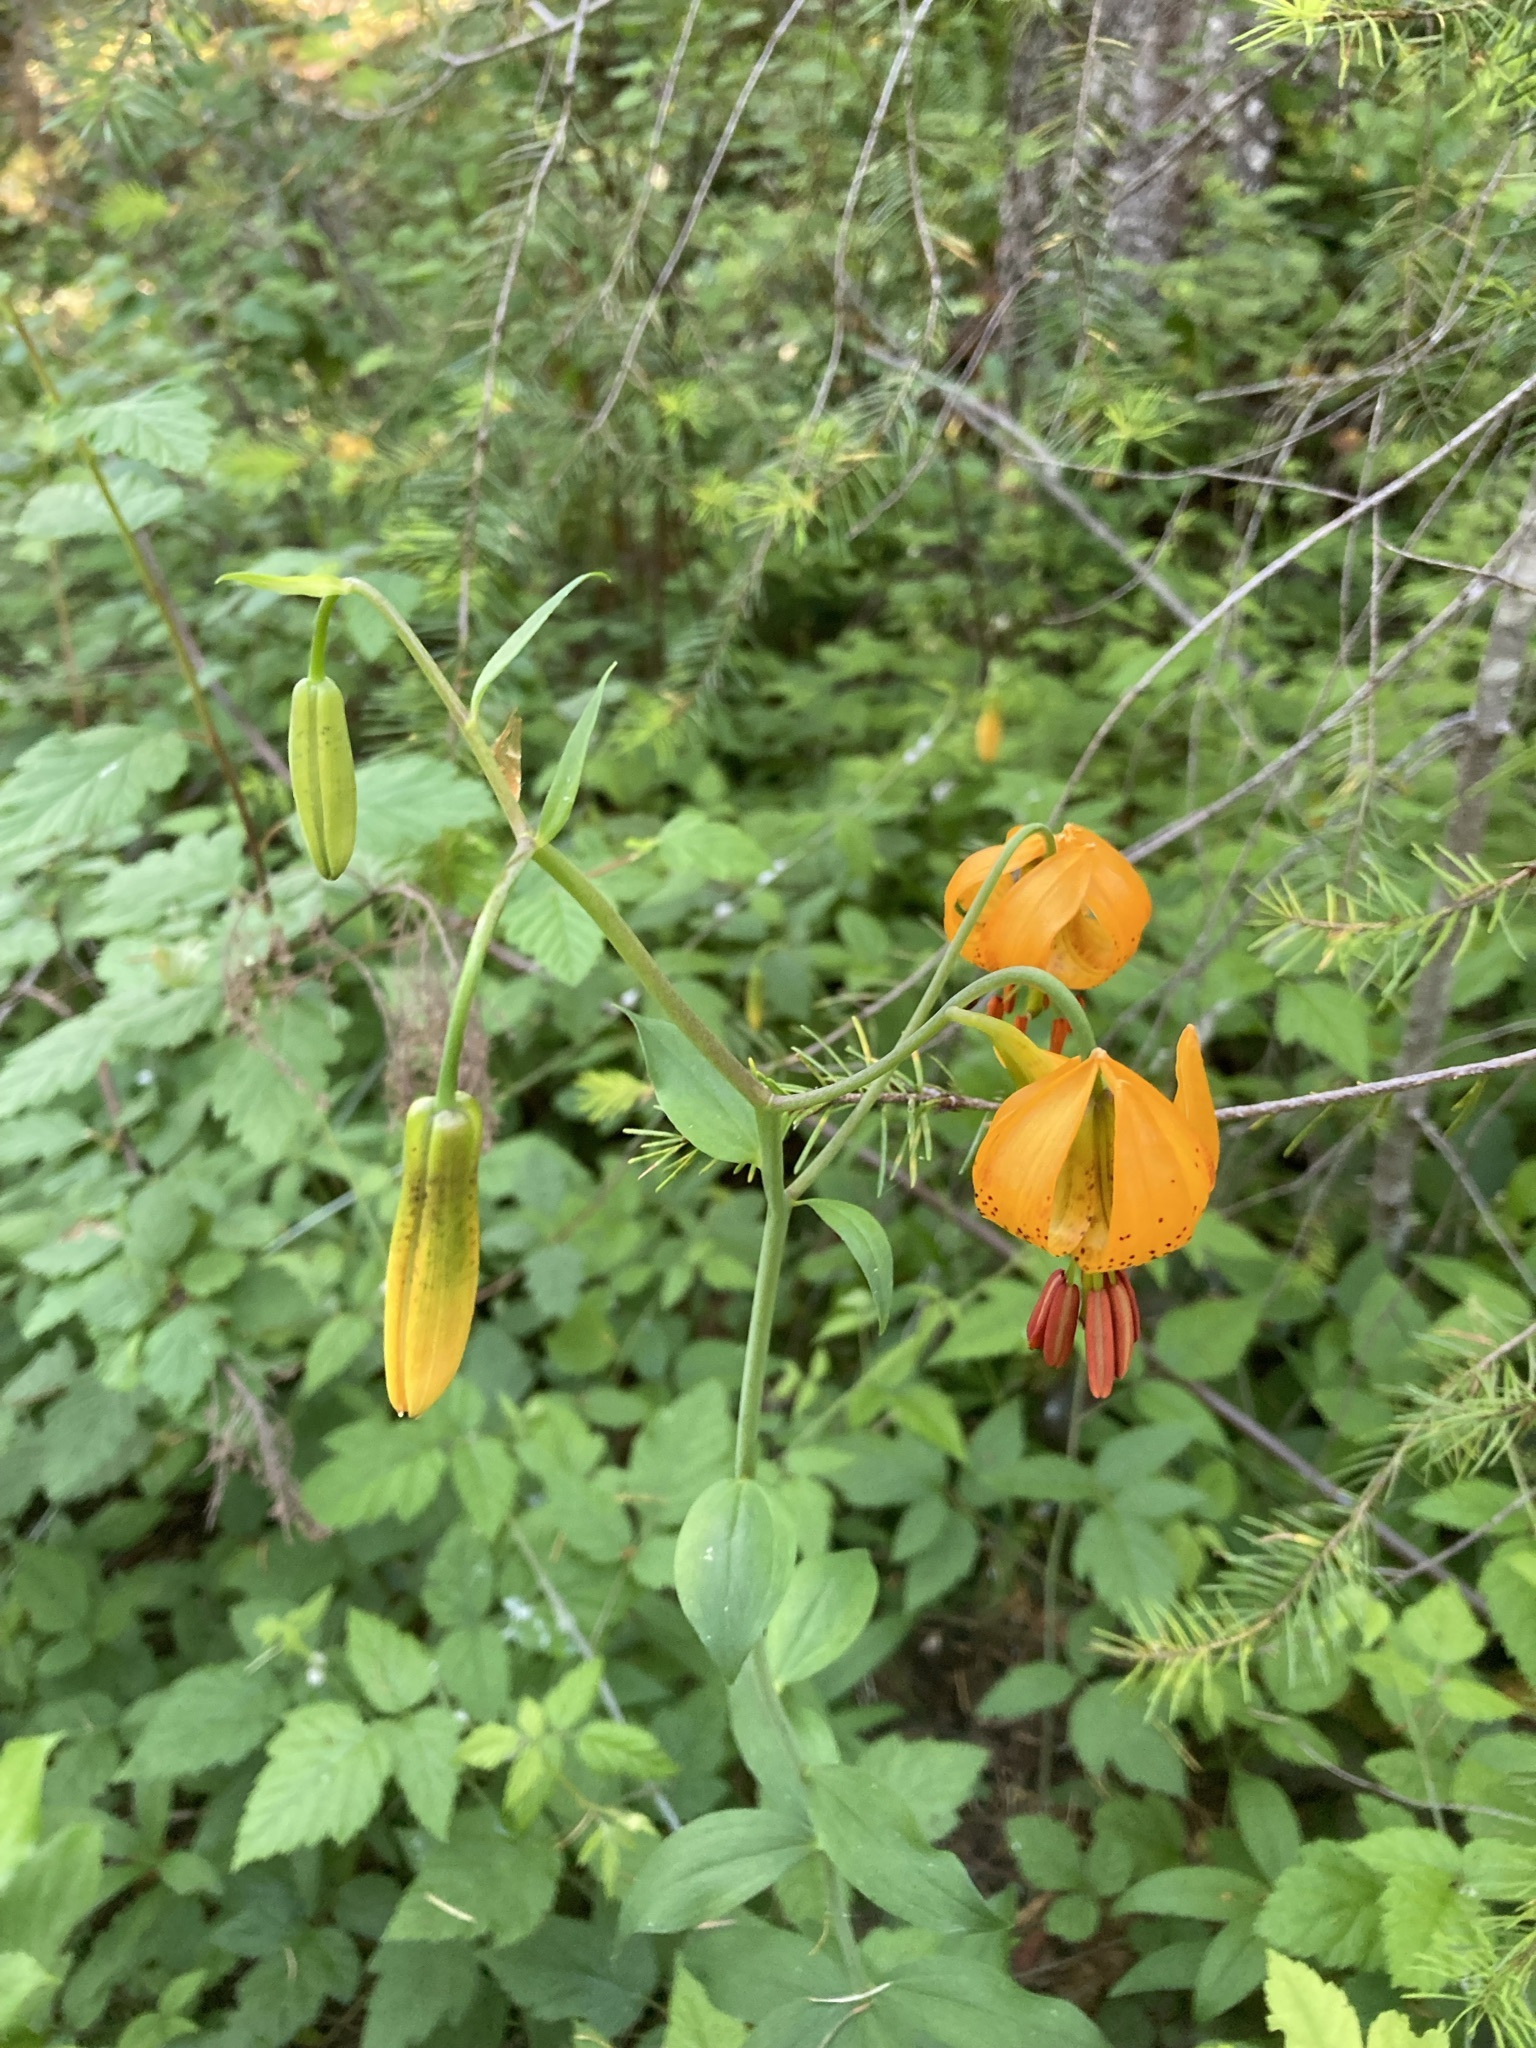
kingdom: Plantae
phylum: Tracheophyta
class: Liliopsida
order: Liliales
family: Liliaceae
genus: Lilium
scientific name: Lilium columbianum
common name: Columbia lily
